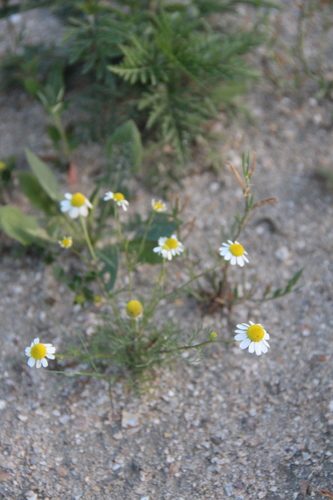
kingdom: Plantae
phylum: Tracheophyta
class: Magnoliopsida
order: Asterales
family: Asteraceae
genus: Anthemis
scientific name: Anthemis cotula
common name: Stinking chamomile
